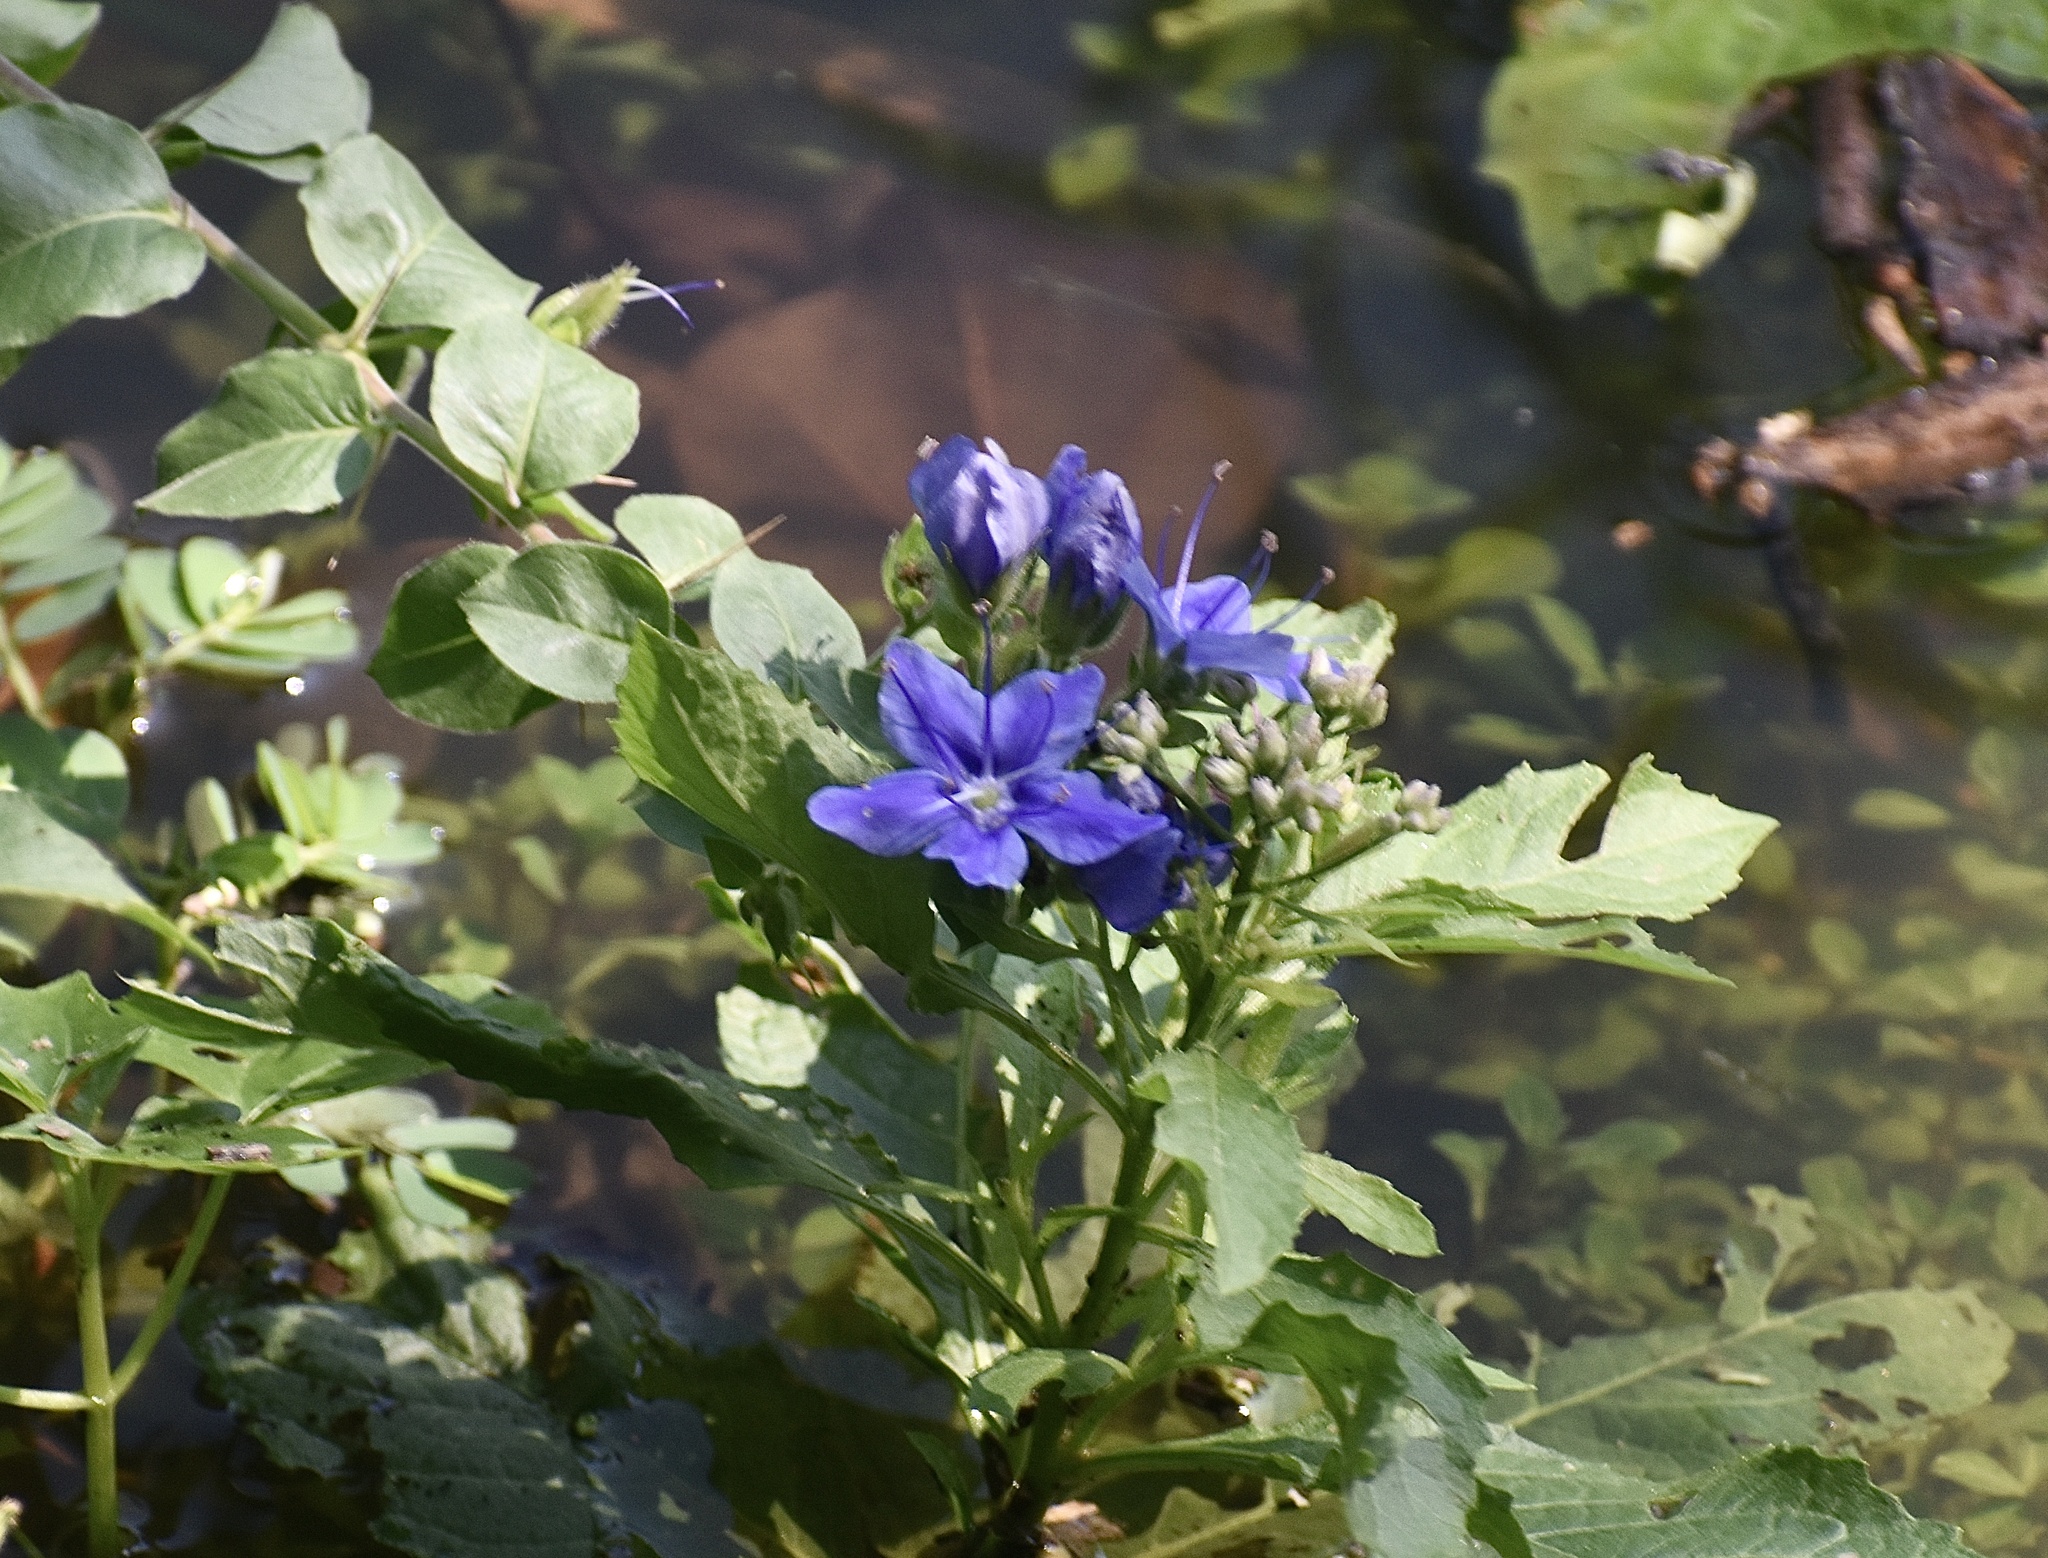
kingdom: Plantae
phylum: Tracheophyta
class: Magnoliopsida
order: Solanales
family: Hydroleaceae
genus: Hydrolea
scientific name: Hydrolea ovata
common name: Ovate false fiddleleaf
